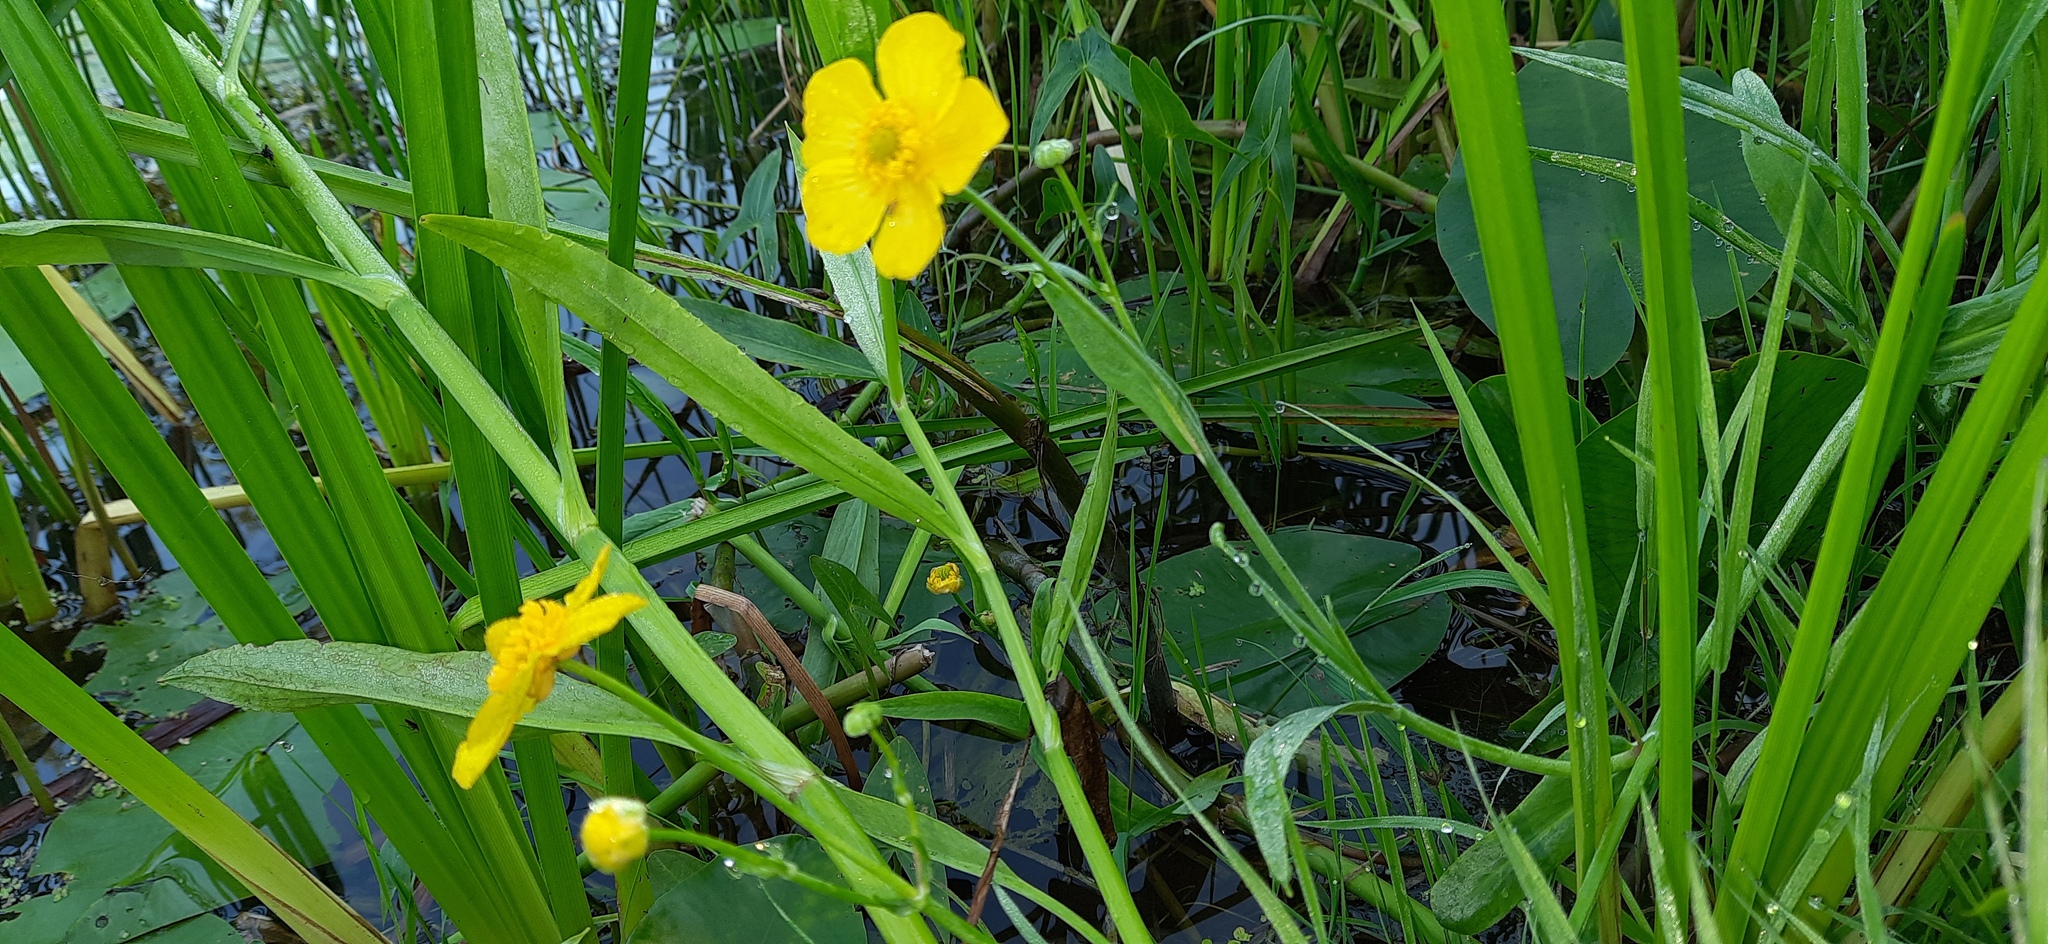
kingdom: Plantae
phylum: Tracheophyta
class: Magnoliopsida
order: Ranunculales
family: Ranunculaceae
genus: Ranunculus
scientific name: Ranunculus lingua
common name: Greater spearwort
